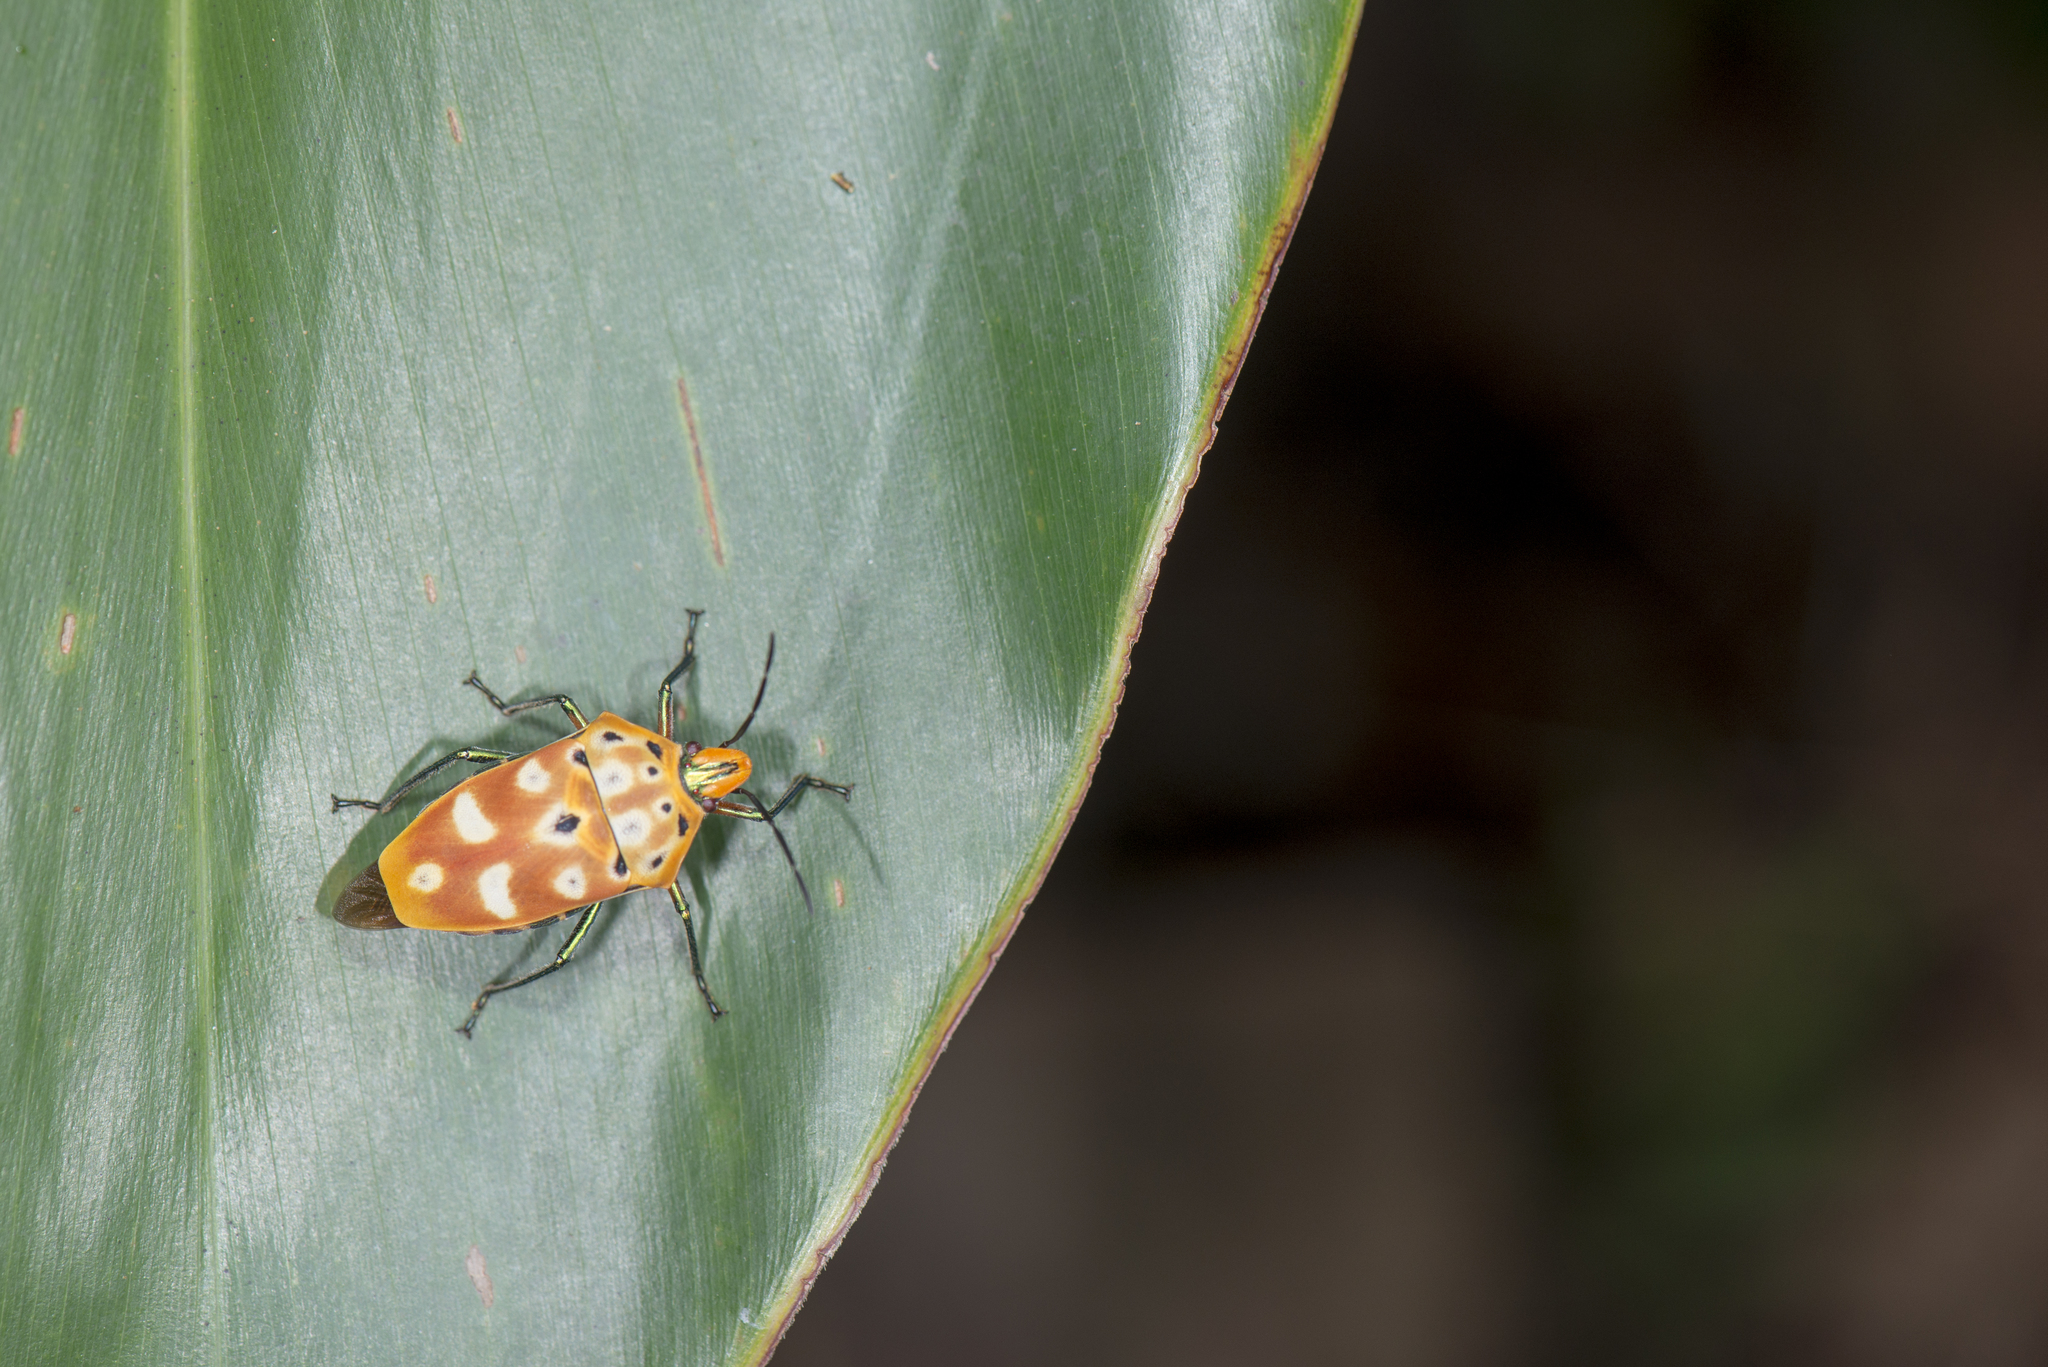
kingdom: Animalia
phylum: Arthropoda
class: Insecta
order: Hemiptera
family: Scutelleridae
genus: Cantao
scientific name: Cantao ocellatus
